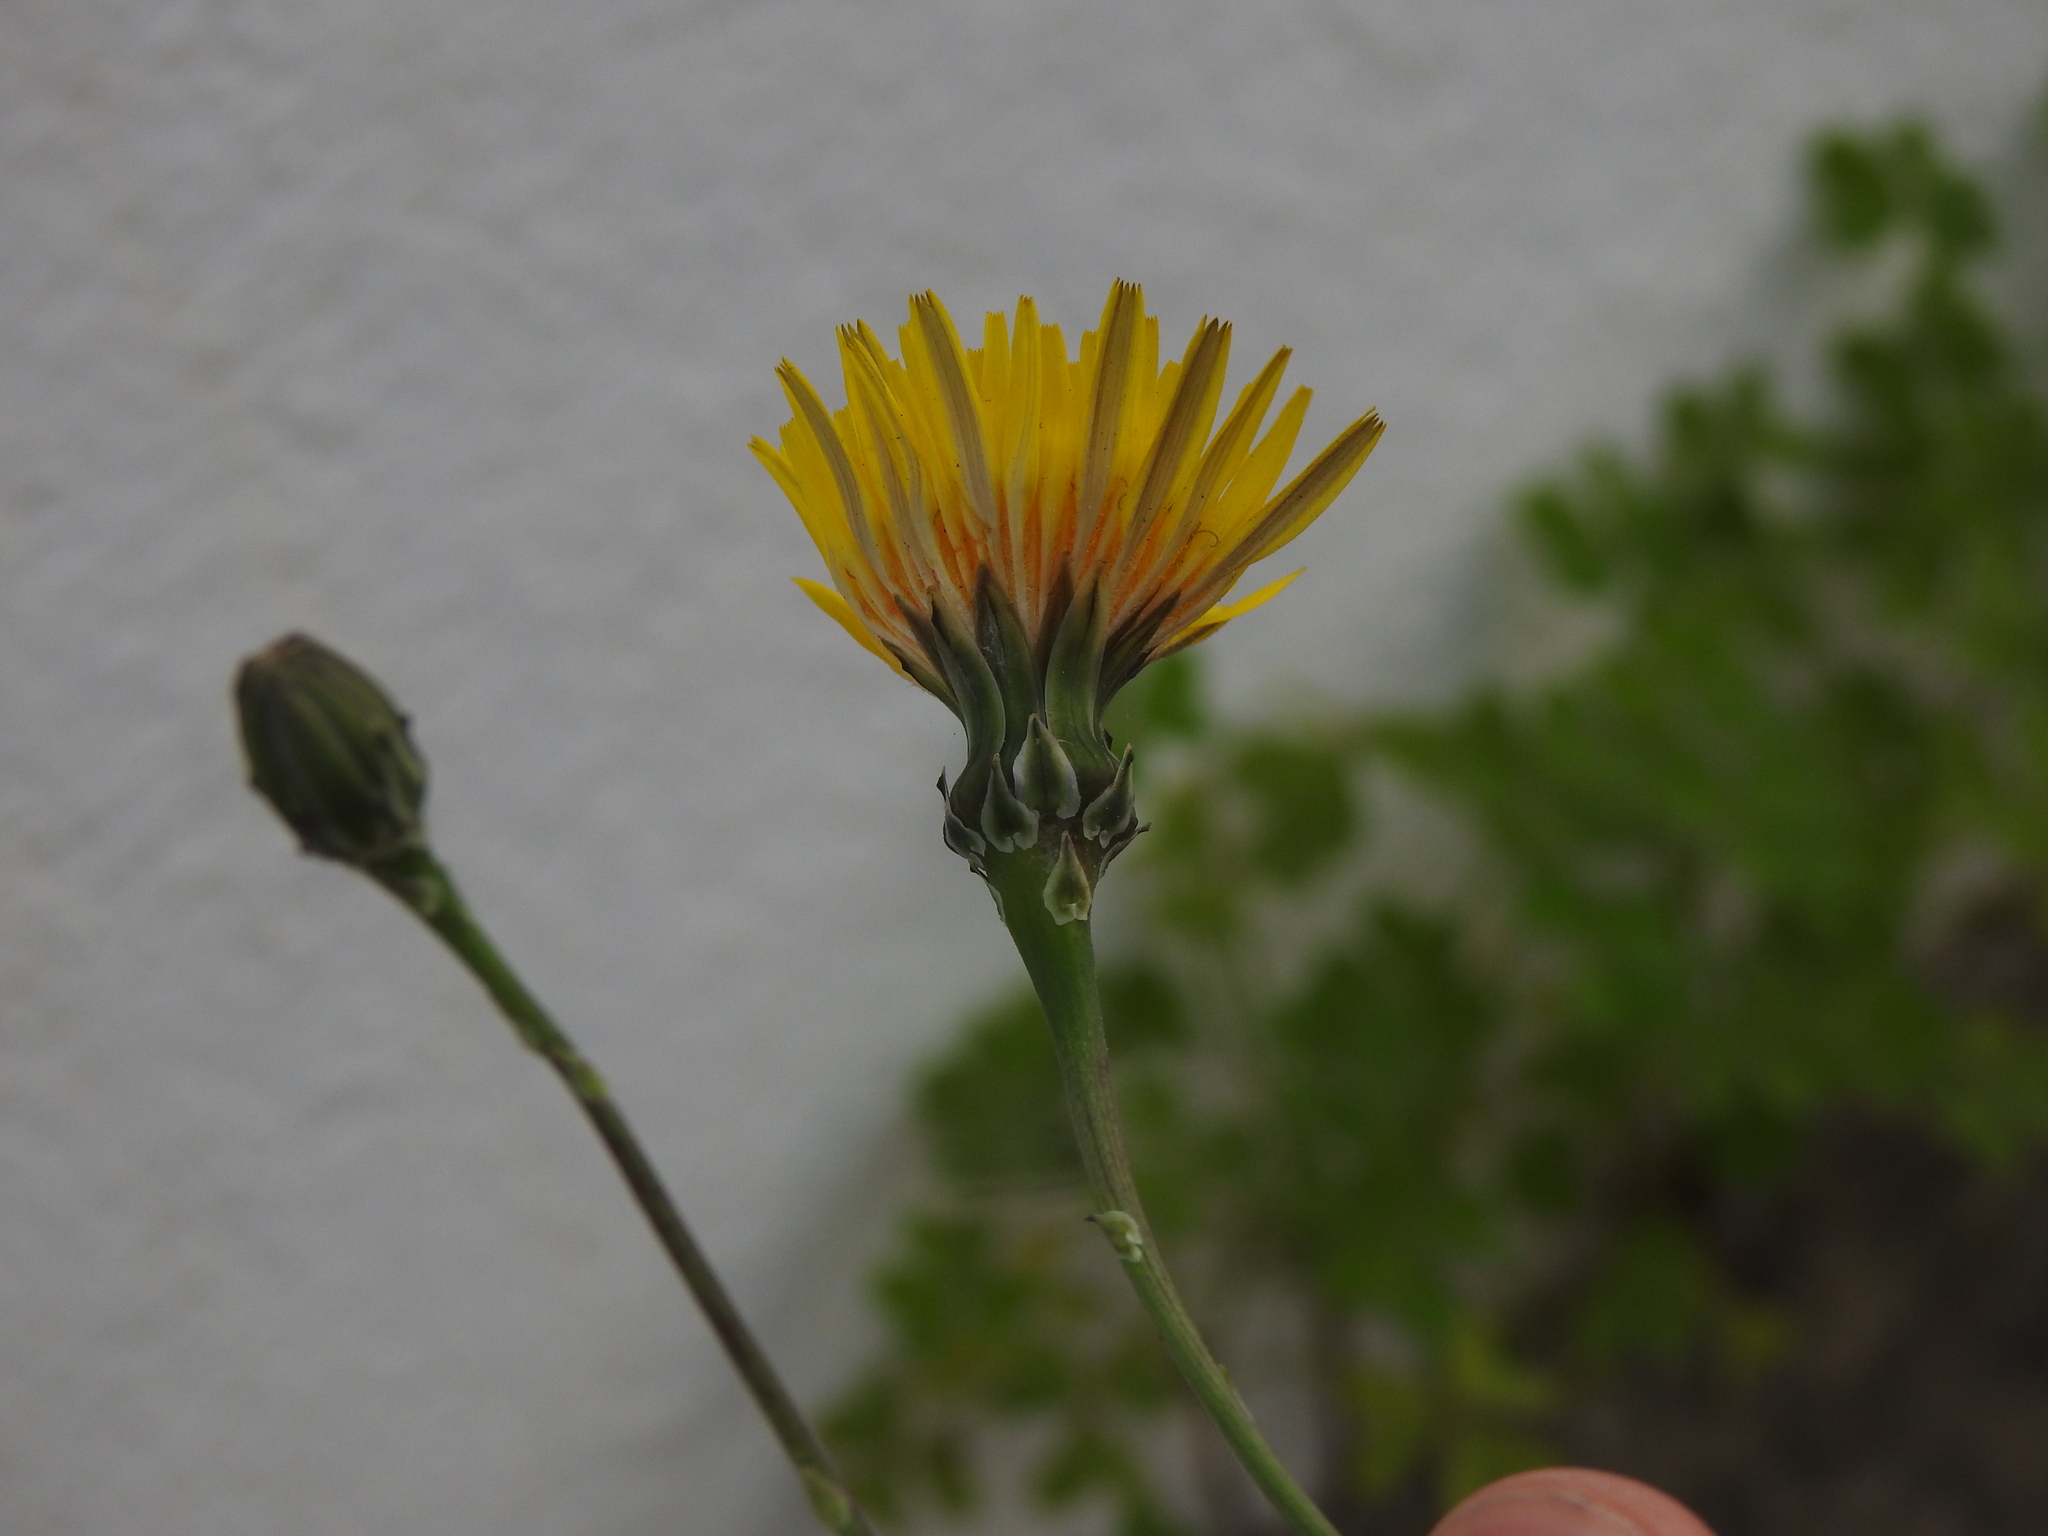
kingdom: Plantae
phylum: Tracheophyta
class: Magnoliopsida
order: Asterales
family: Asteraceae
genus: Reichardia
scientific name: Reichardia picroides
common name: Common brighteyes
